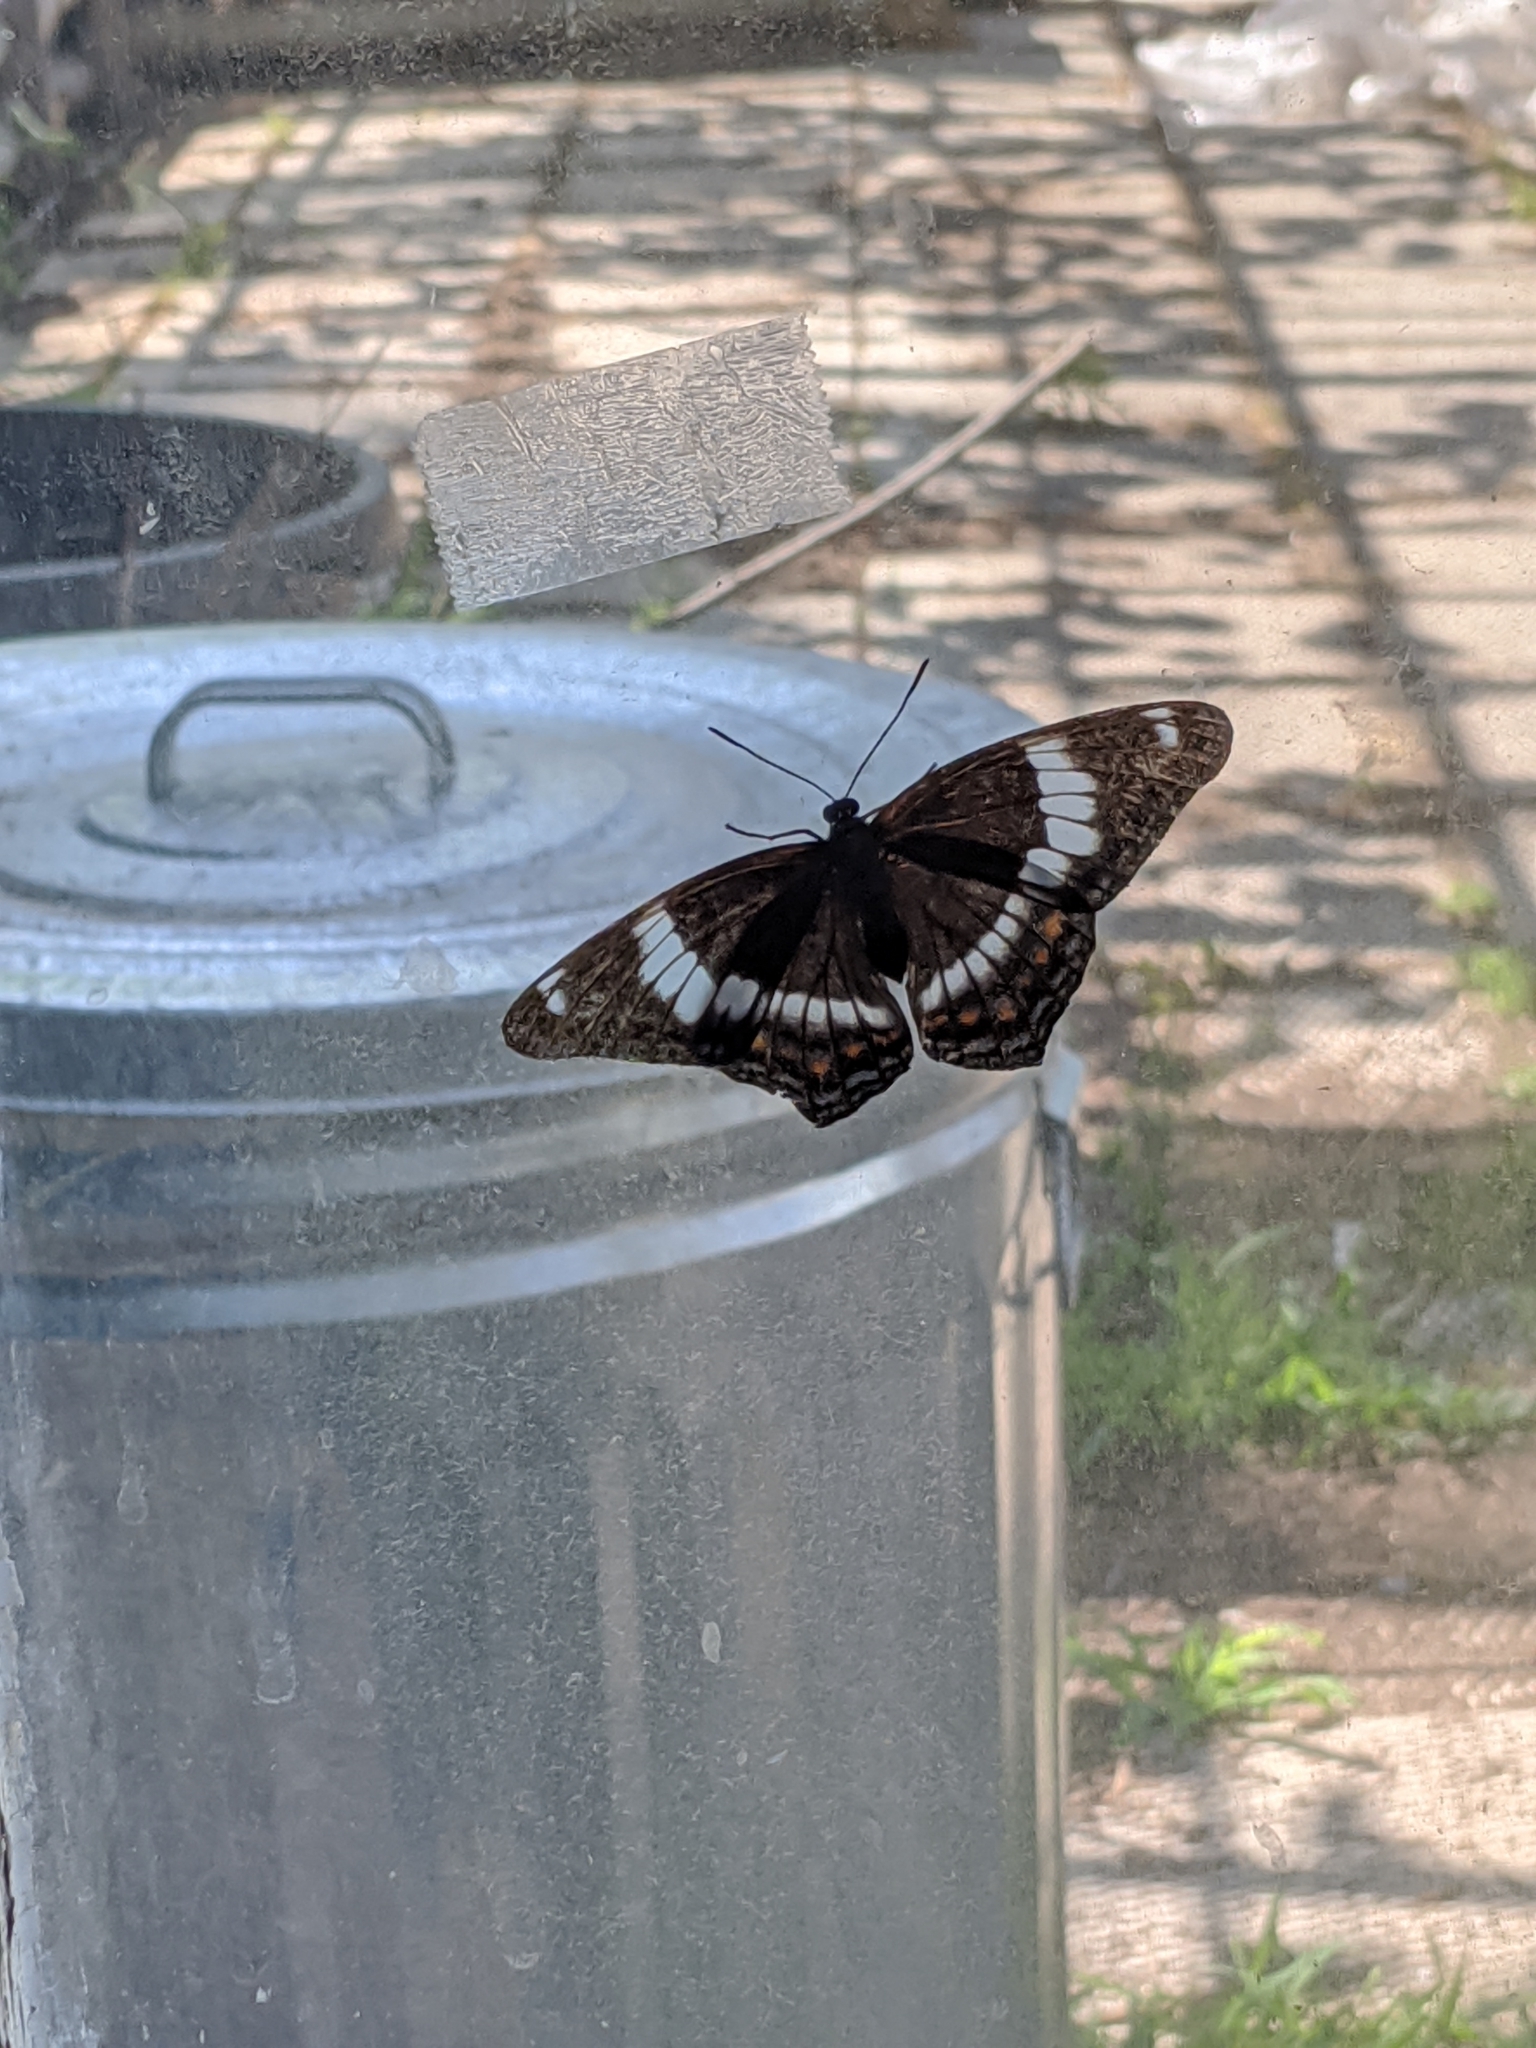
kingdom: Animalia
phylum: Arthropoda
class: Insecta
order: Lepidoptera
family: Nymphalidae
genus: Limenitis
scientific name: Limenitis arthemis
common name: Red-spotted admiral
